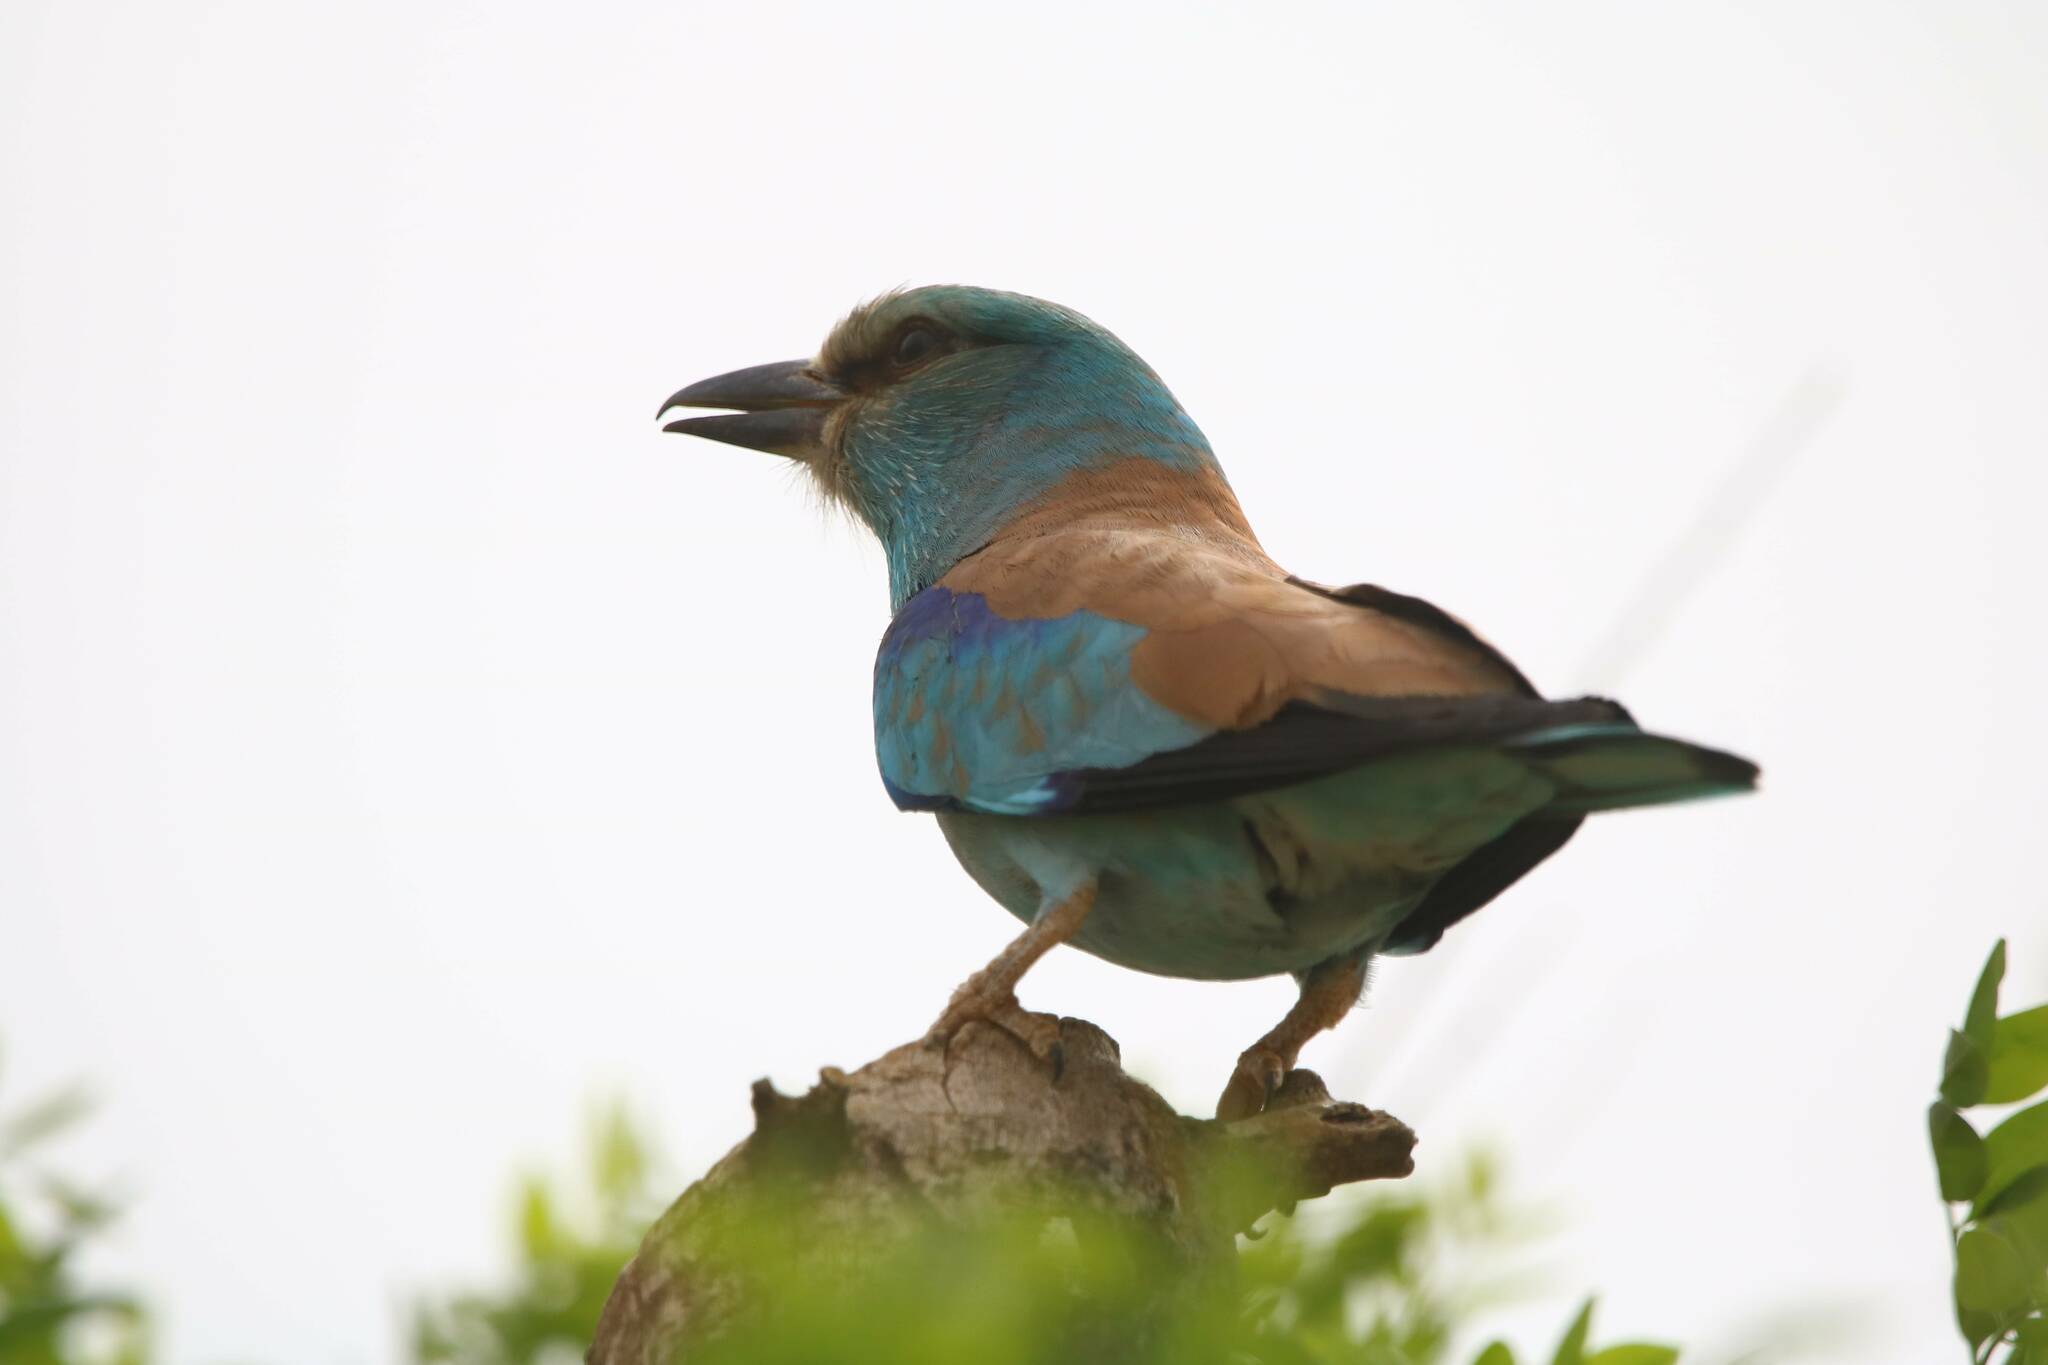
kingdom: Animalia
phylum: Chordata
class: Aves
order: Coraciiformes
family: Coraciidae
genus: Coracias
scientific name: Coracias garrulus
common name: European roller
